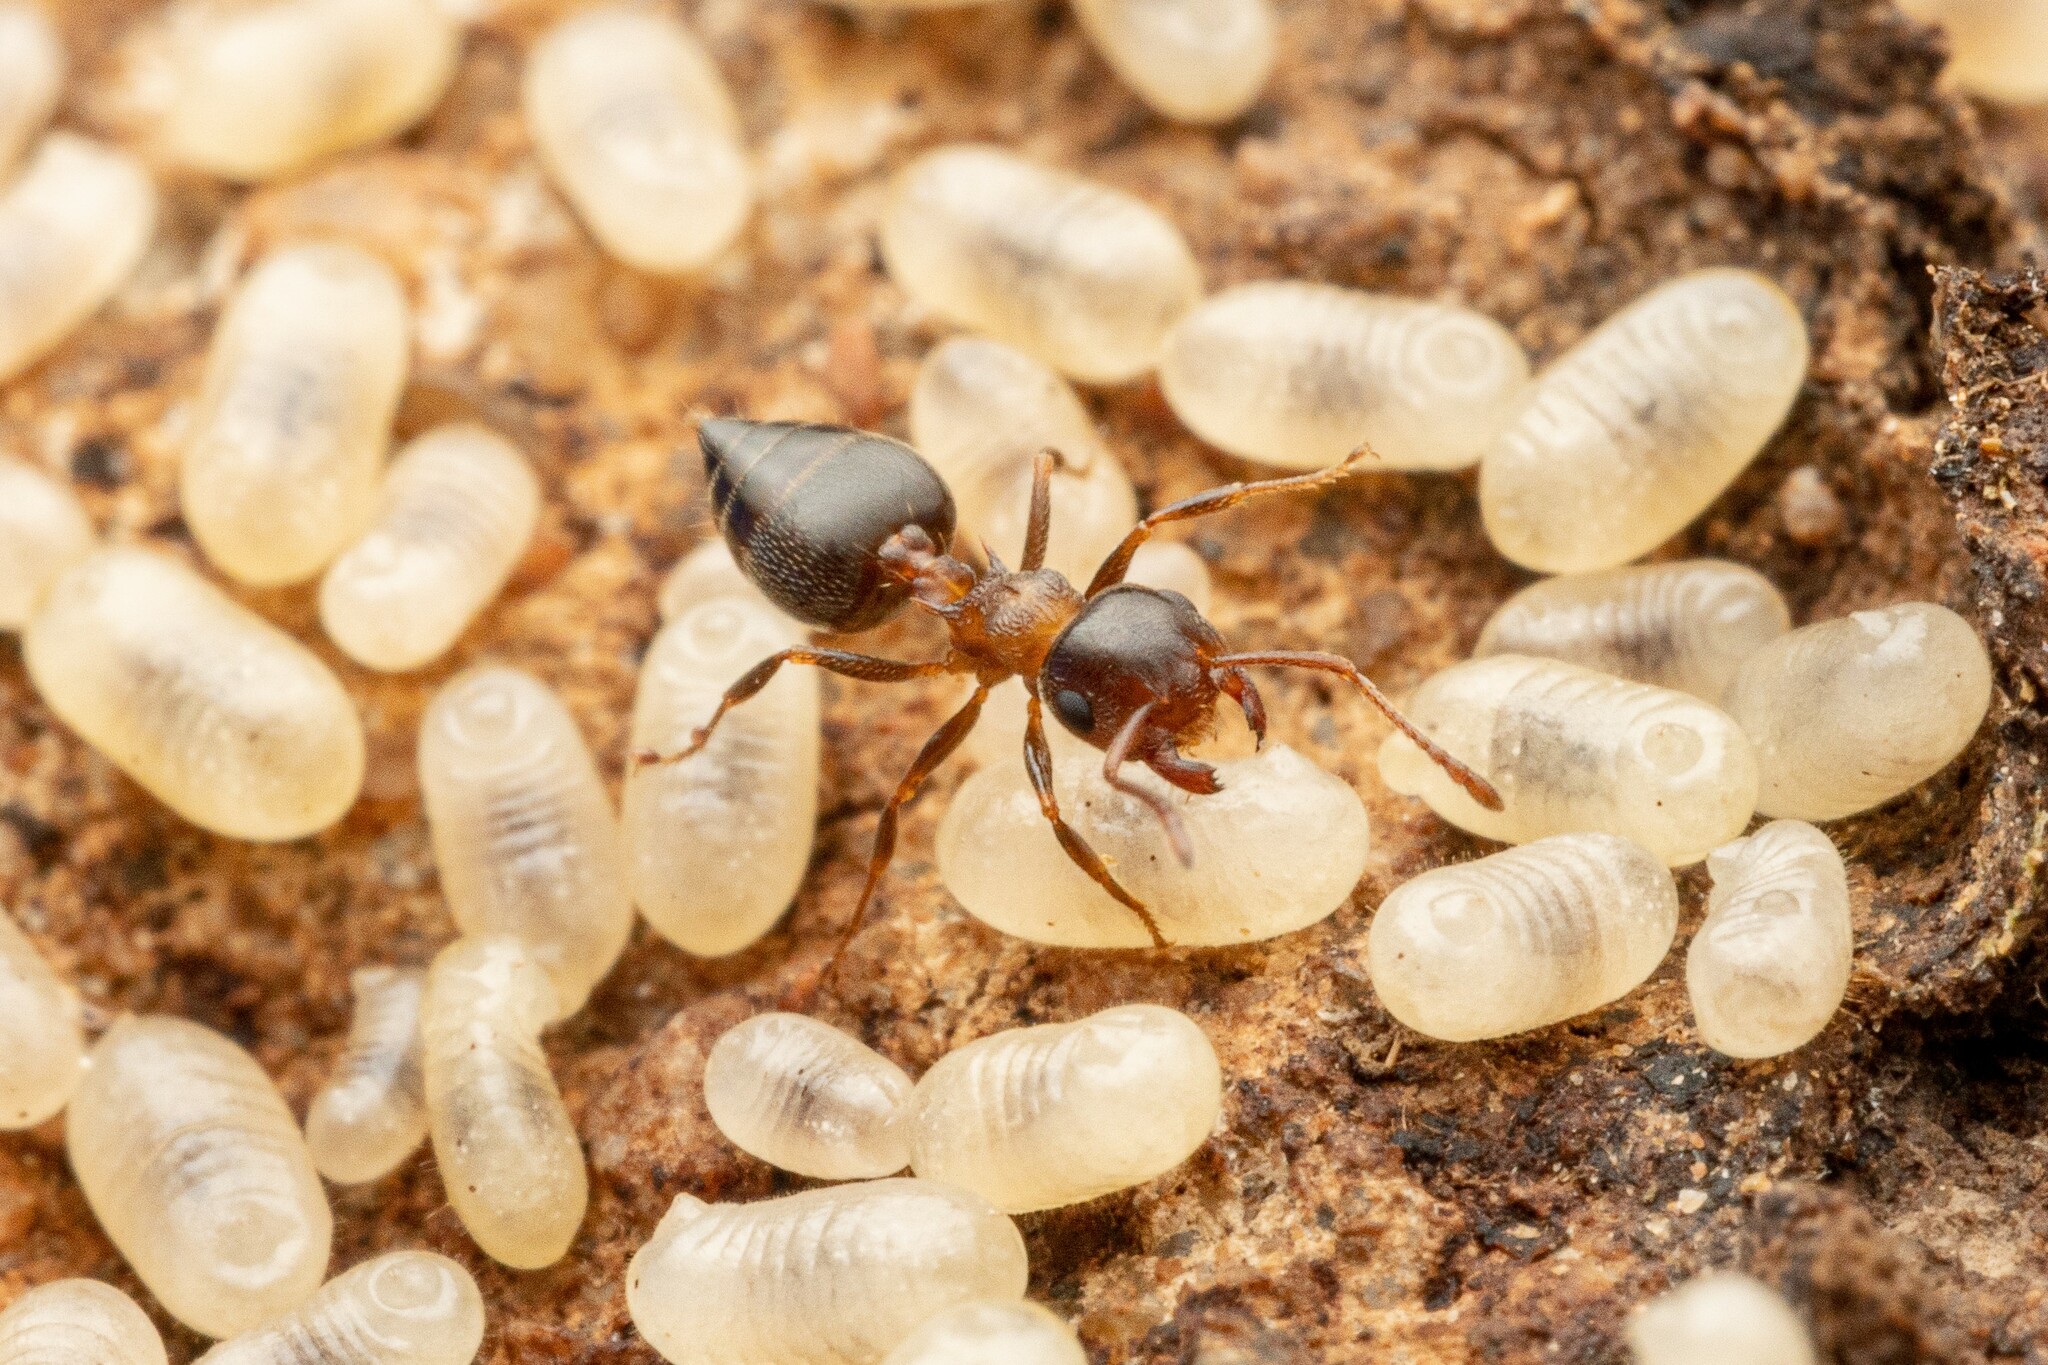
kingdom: Animalia
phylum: Arthropoda
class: Insecta
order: Hymenoptera
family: Formicidae
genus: Crematogaster
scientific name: Crematogaster opuntiae
